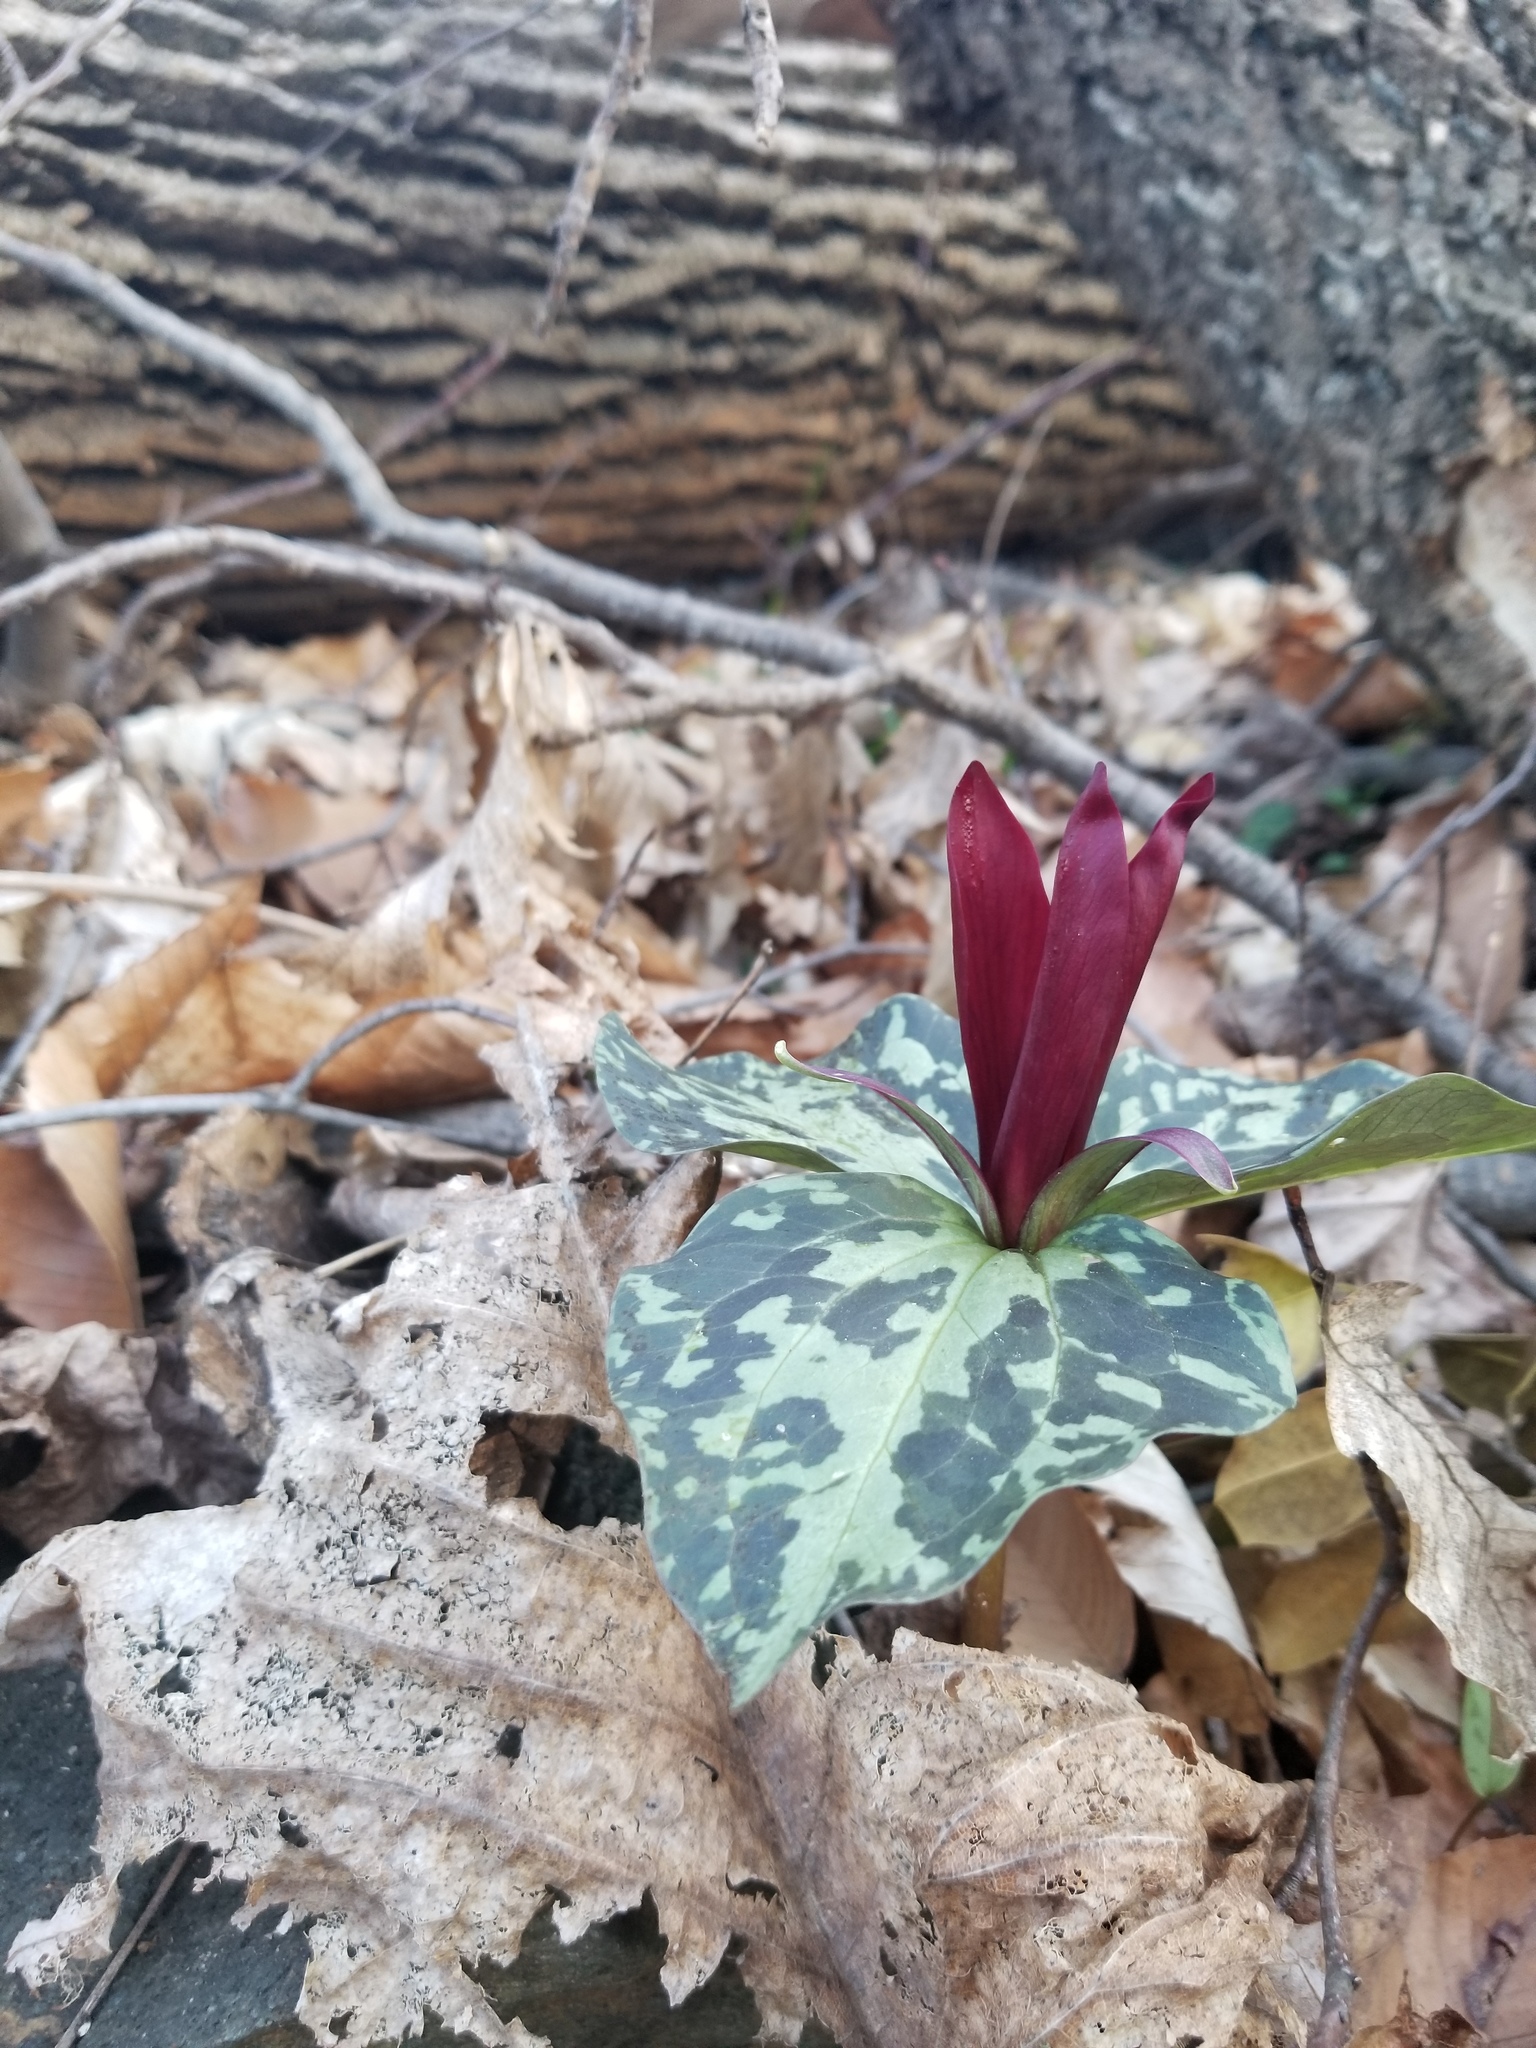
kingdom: Plantae
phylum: Tracheophyta
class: Liliopsida
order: Liliales
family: Melanthiaceae
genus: Trillium
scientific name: Trillium cuneatum
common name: Cuneate trillium
